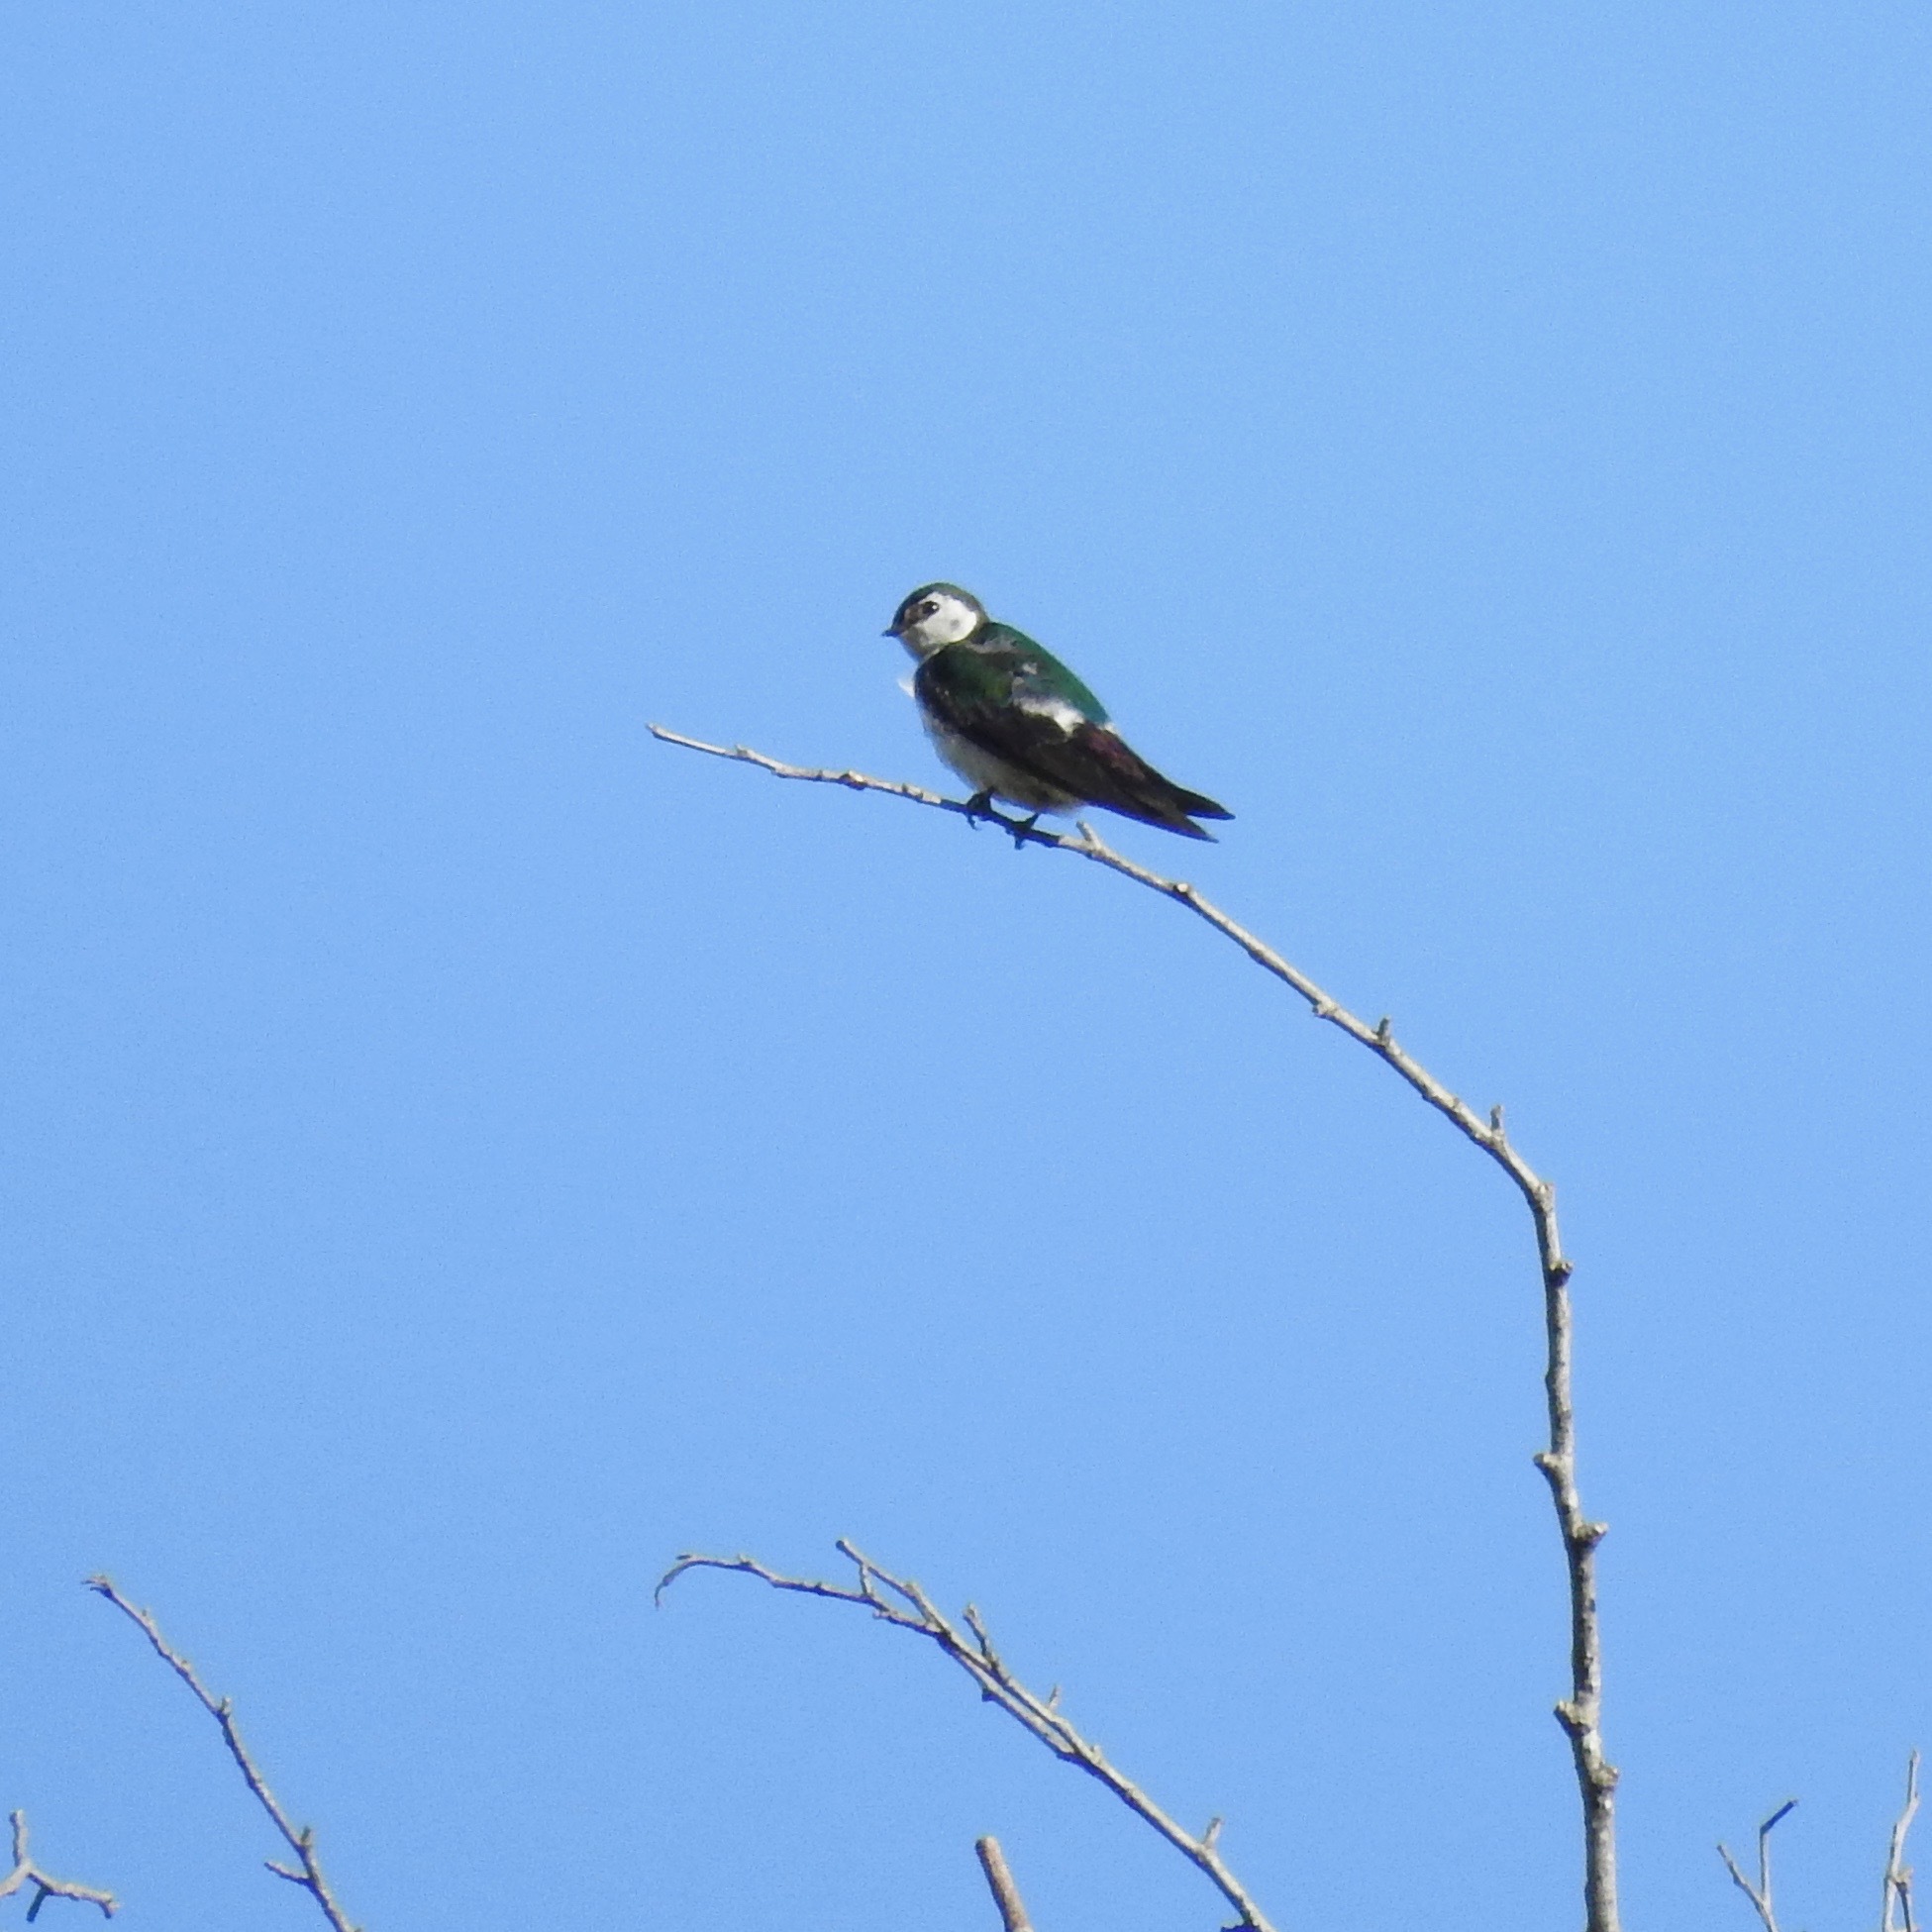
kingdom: Animalia
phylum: Chordata
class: Aves
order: Passeriformes
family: Hirundinidae
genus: Tachycineta
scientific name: Tachycineta thalassina
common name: Violet-green swallow
